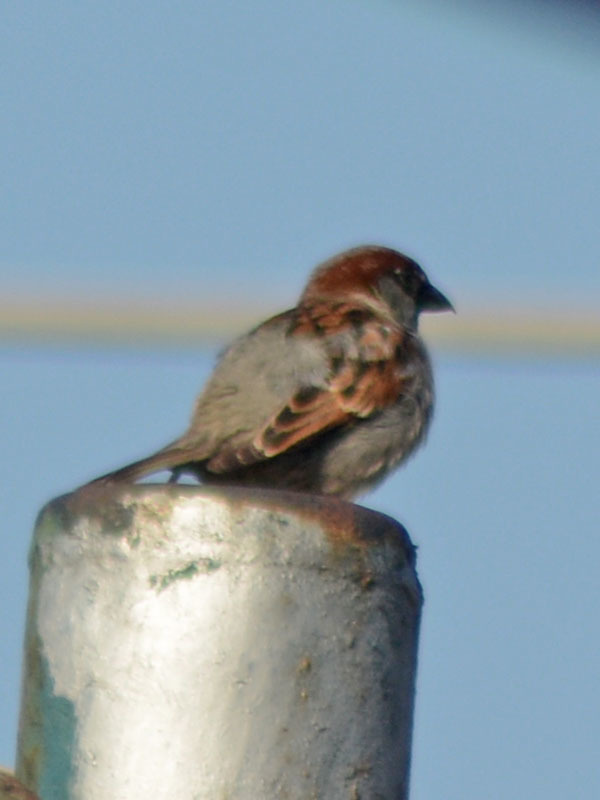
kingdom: Animalia
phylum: Chordata
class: Aves
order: Passeriformes
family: Passeridae
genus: Passer
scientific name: Passer domesticus
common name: House sparrow
